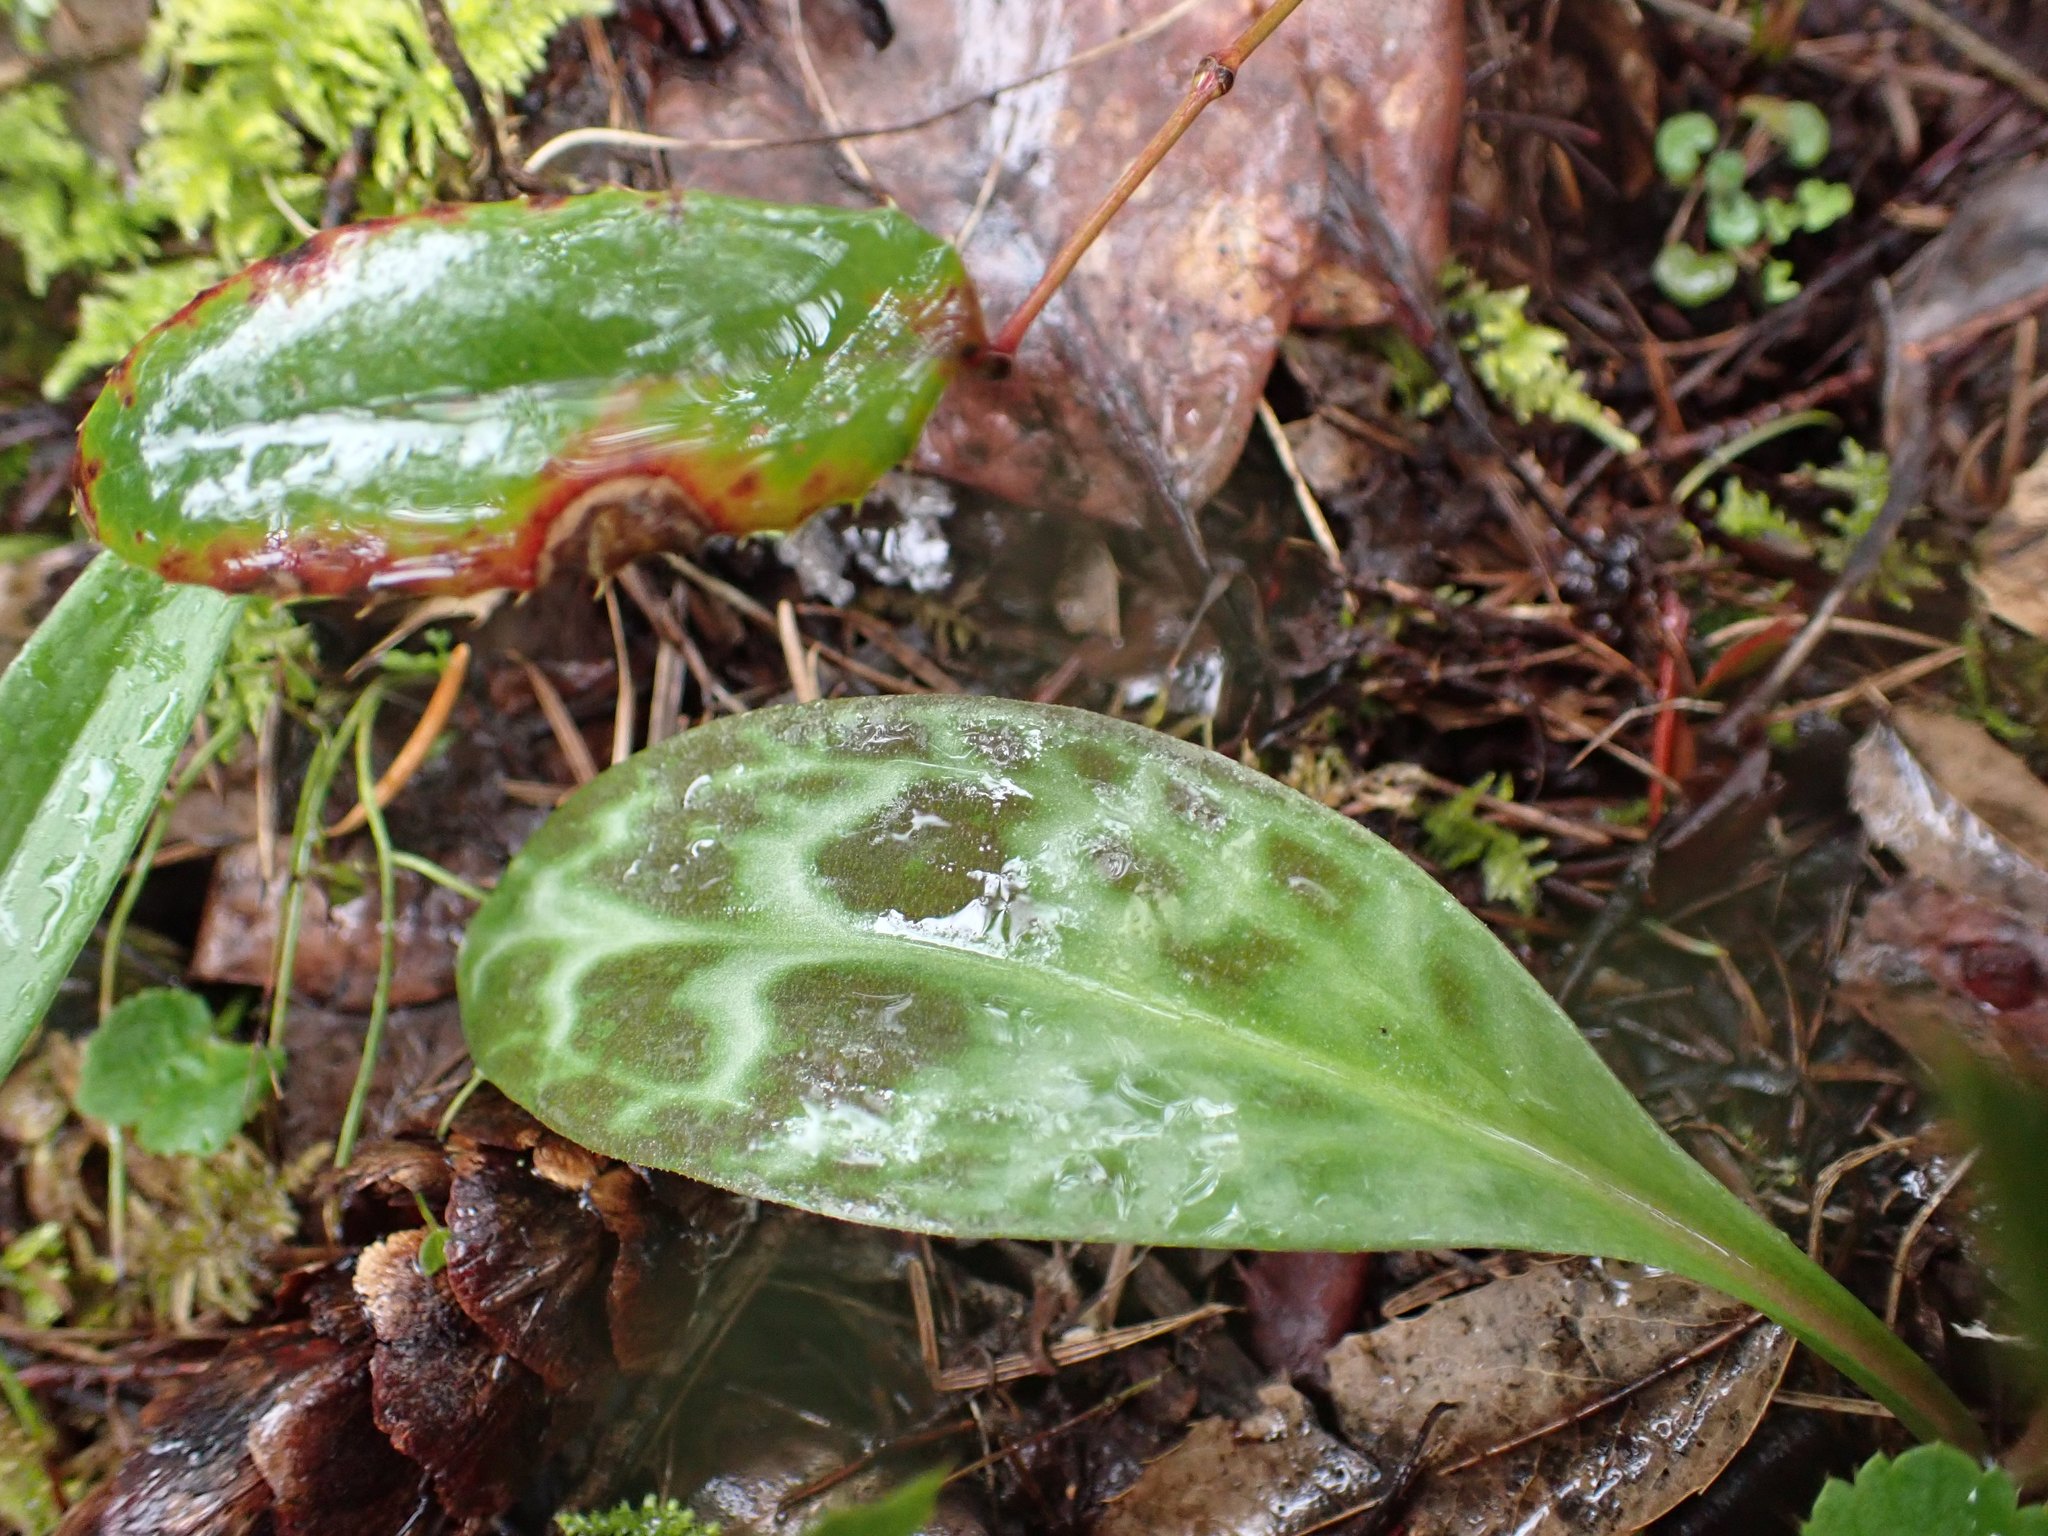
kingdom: Plantae
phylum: Tracheophyta
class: Liliopsida
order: Liliales
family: Liliaceae
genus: Erythronium
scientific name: Erythronium oregonum
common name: Giant adder's-tongue
